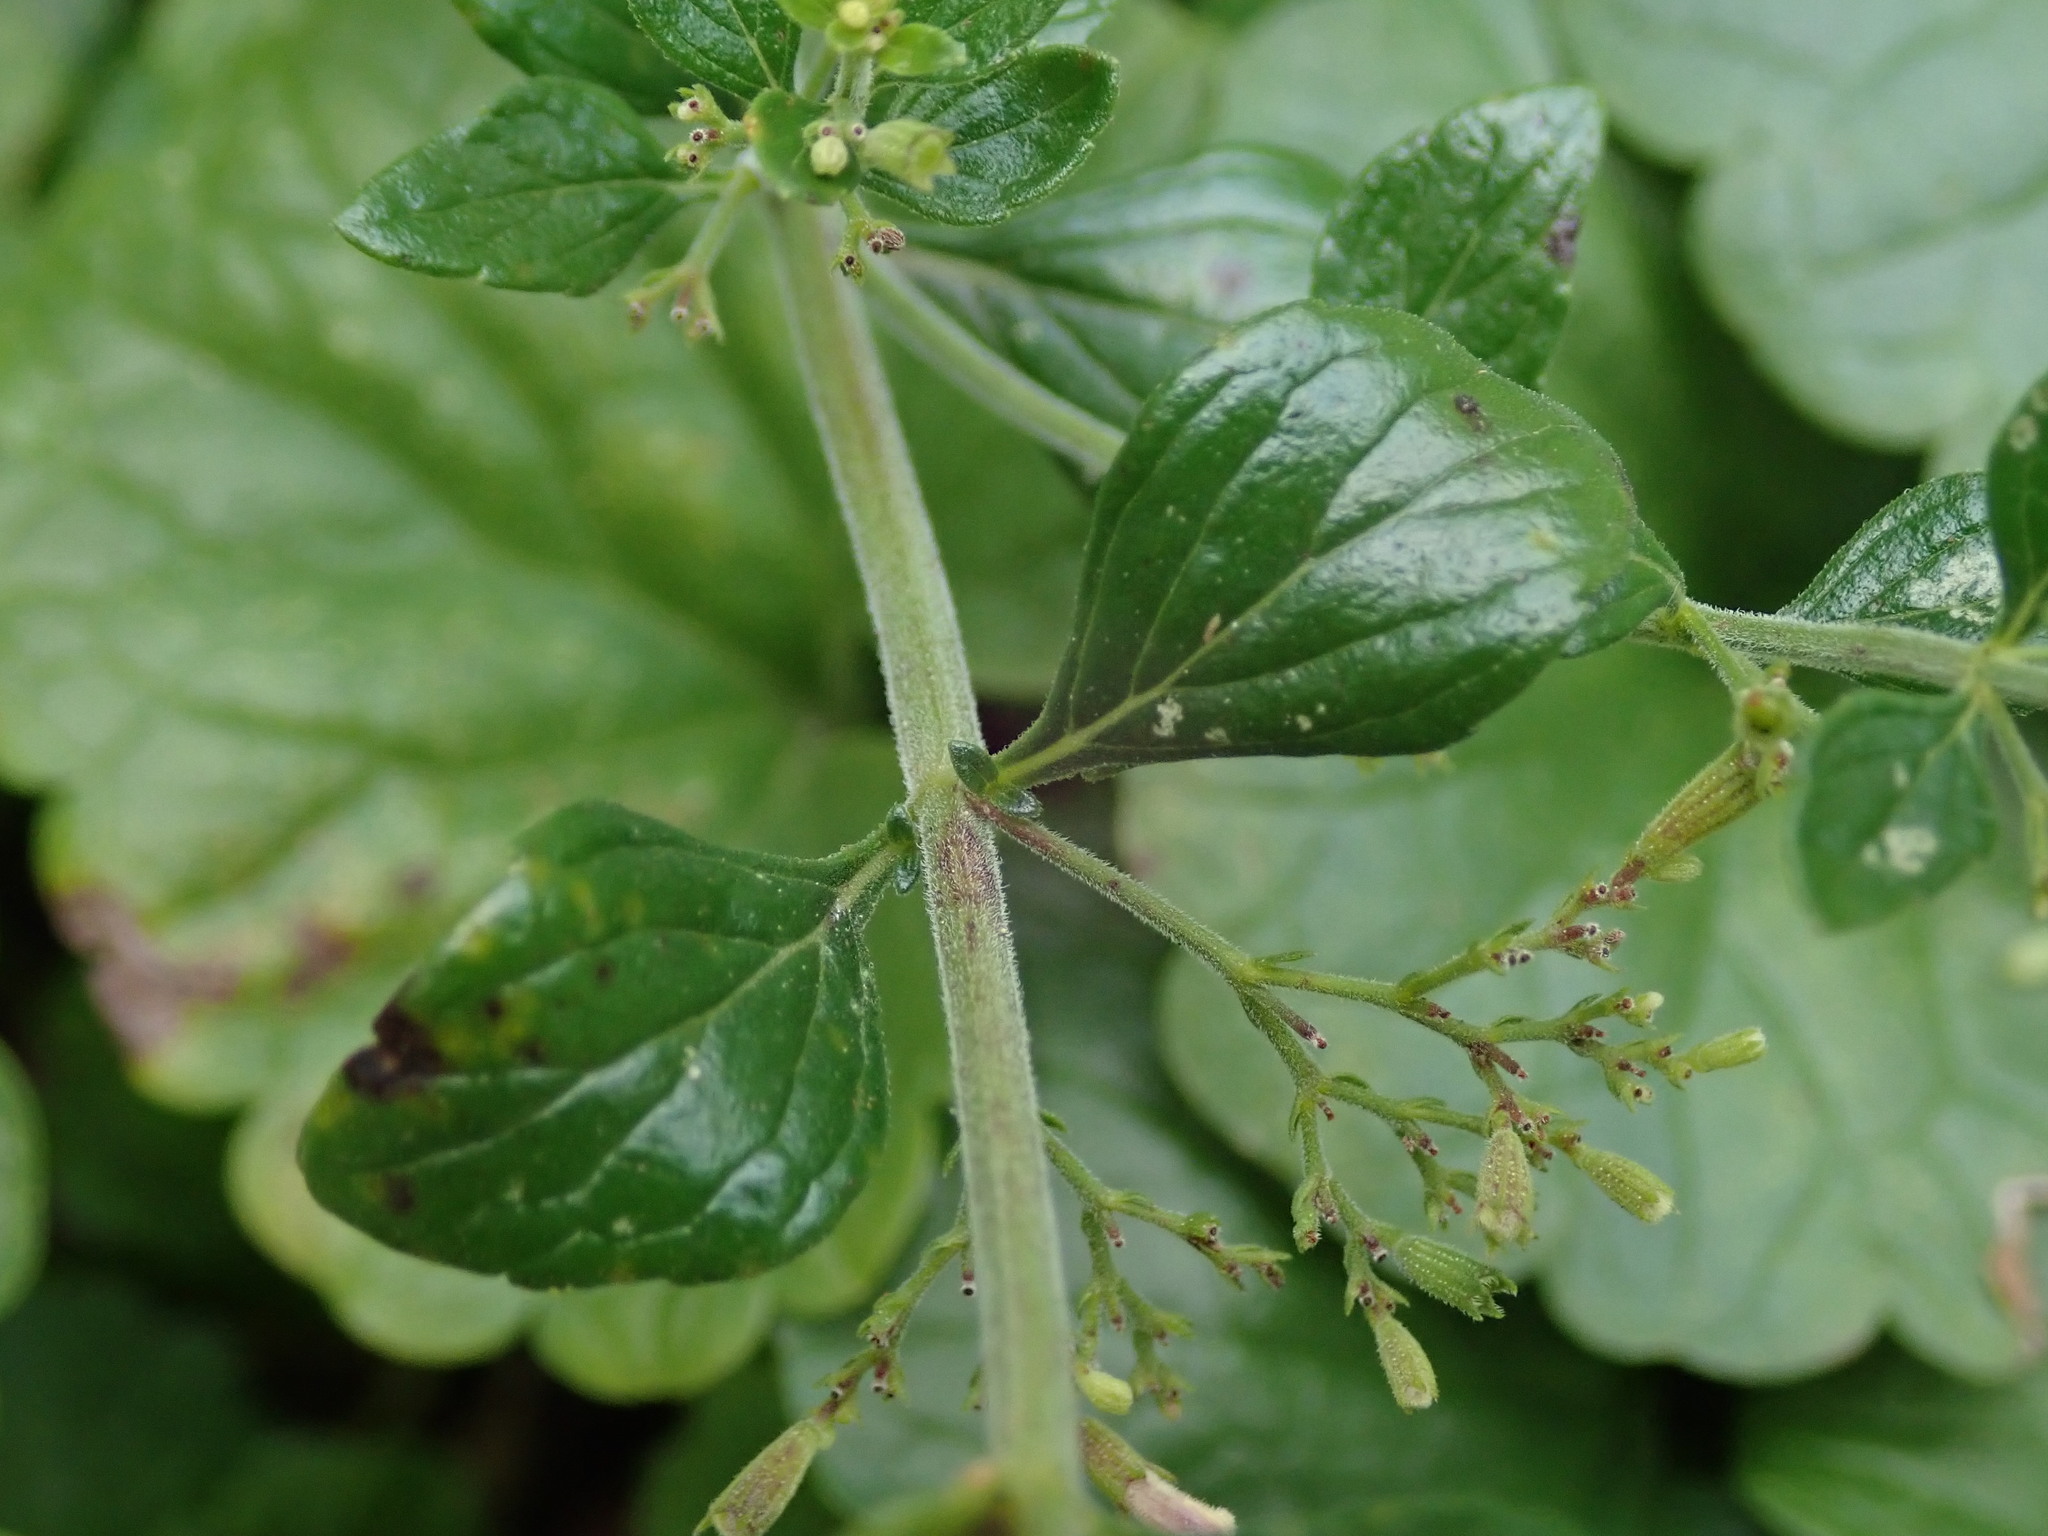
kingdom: Plantae
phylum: Tracheophyta
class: Magnoliopsida
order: Lamiales
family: Lamiaceae
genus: Clinopodium
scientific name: Clinopodium nepeta
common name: Lesser calamint
